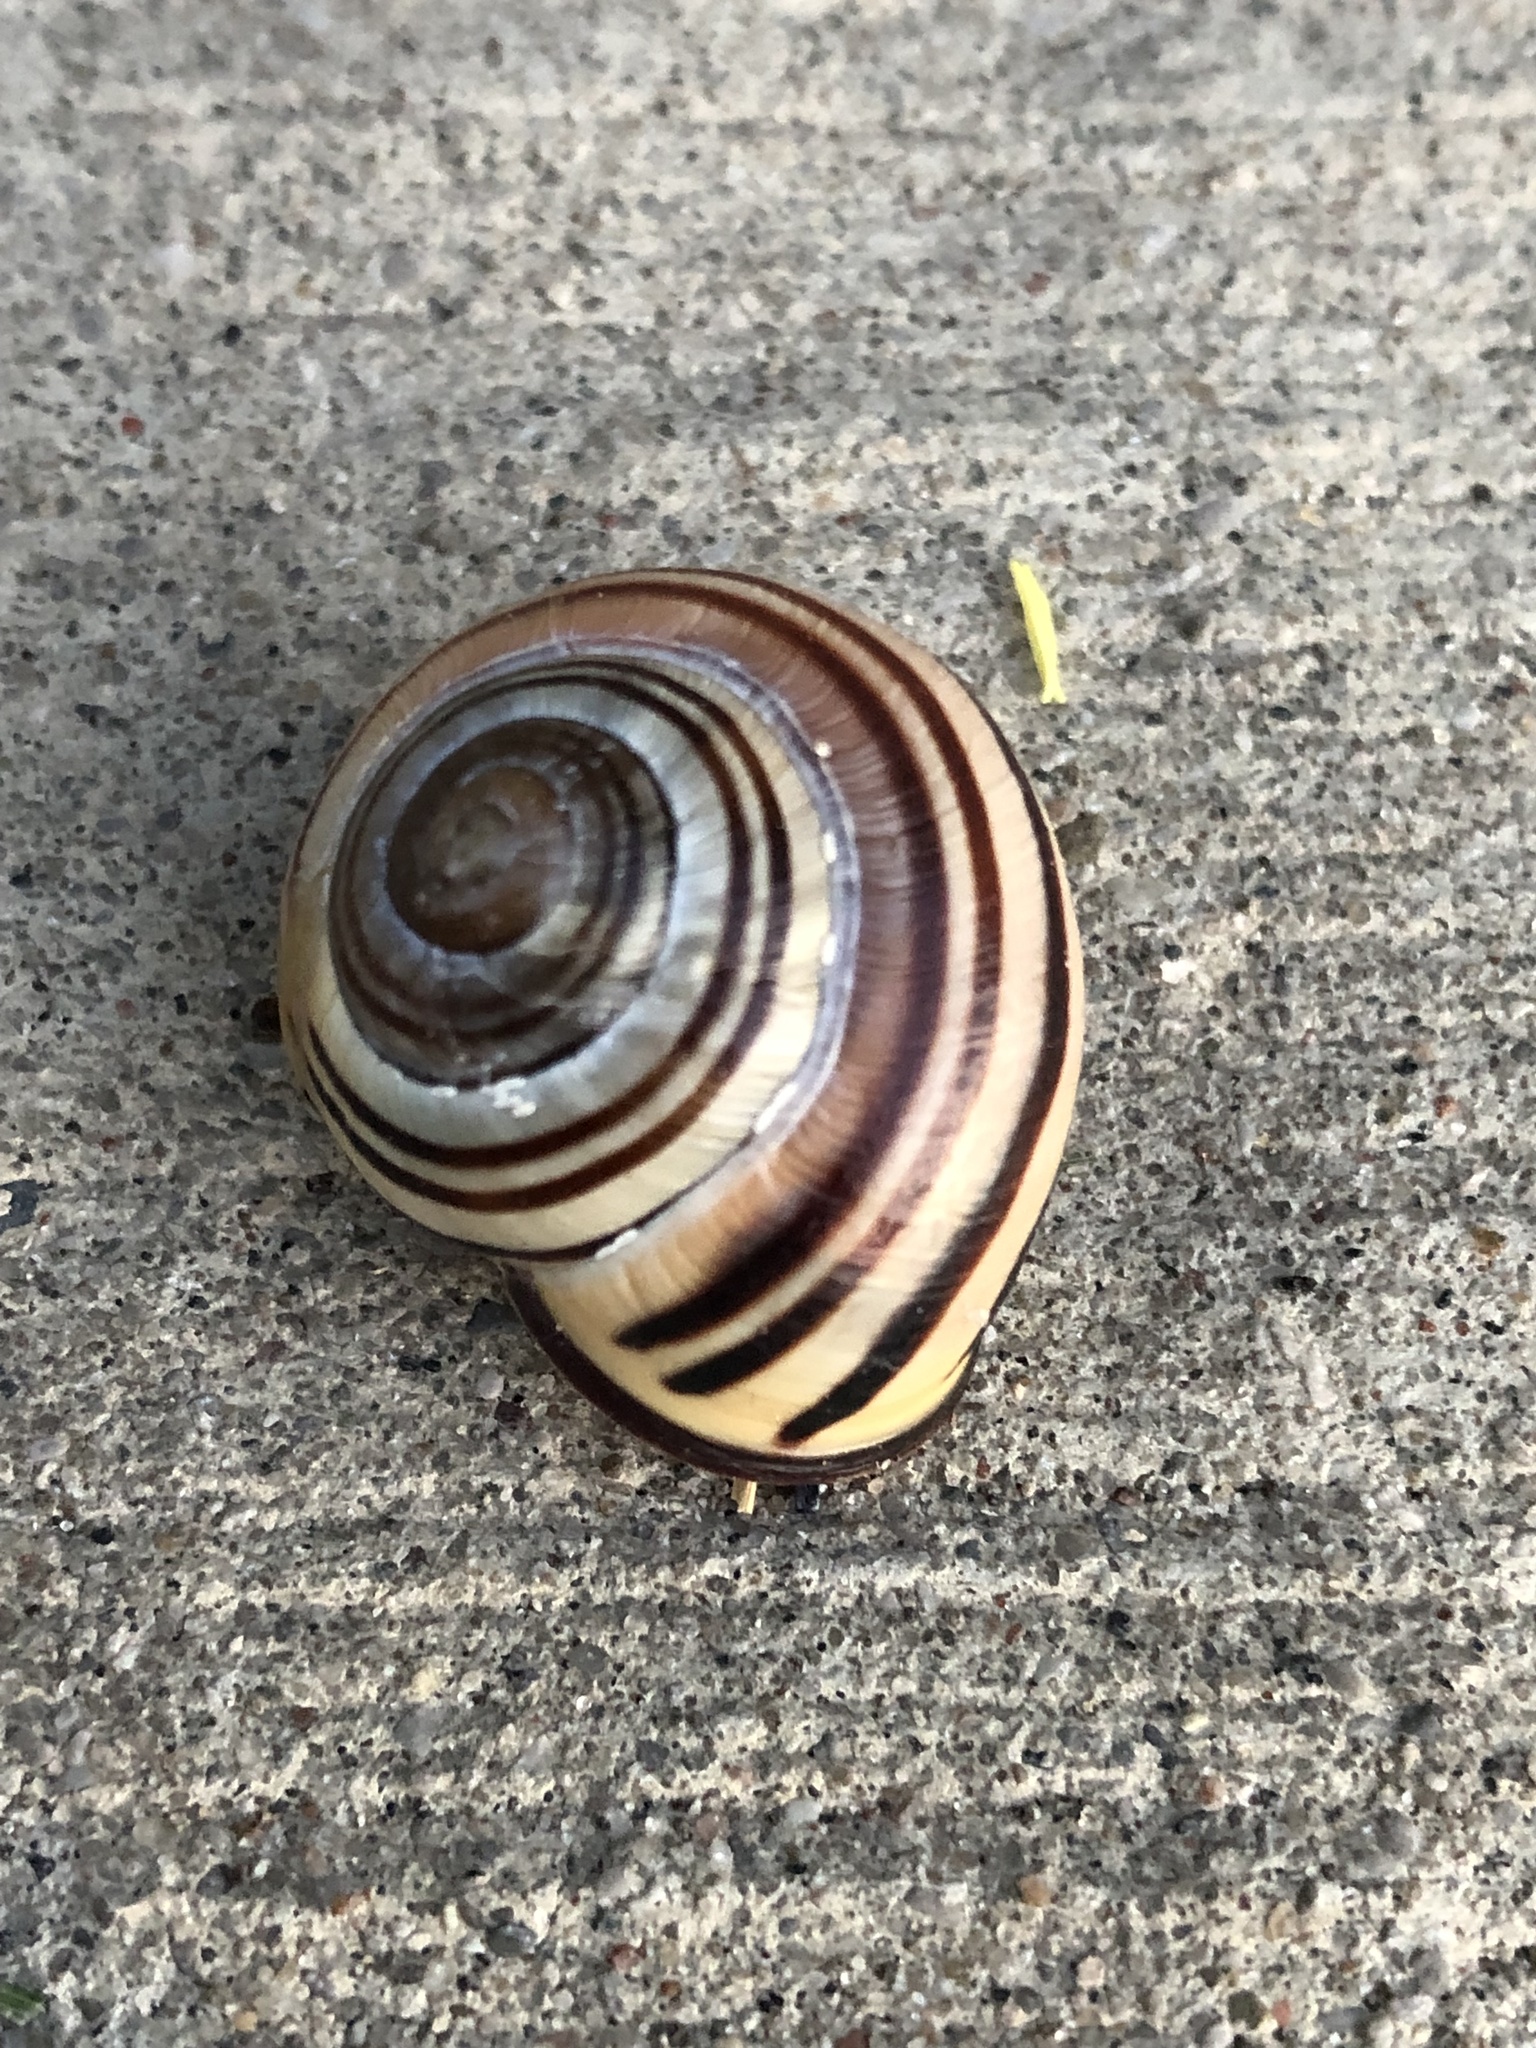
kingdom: Animalia
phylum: Mollusca
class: Gastropoda
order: Stylommatophora
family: Helicidae
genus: Cepaea
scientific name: Cepaea nemoralis
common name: Grovesnail
